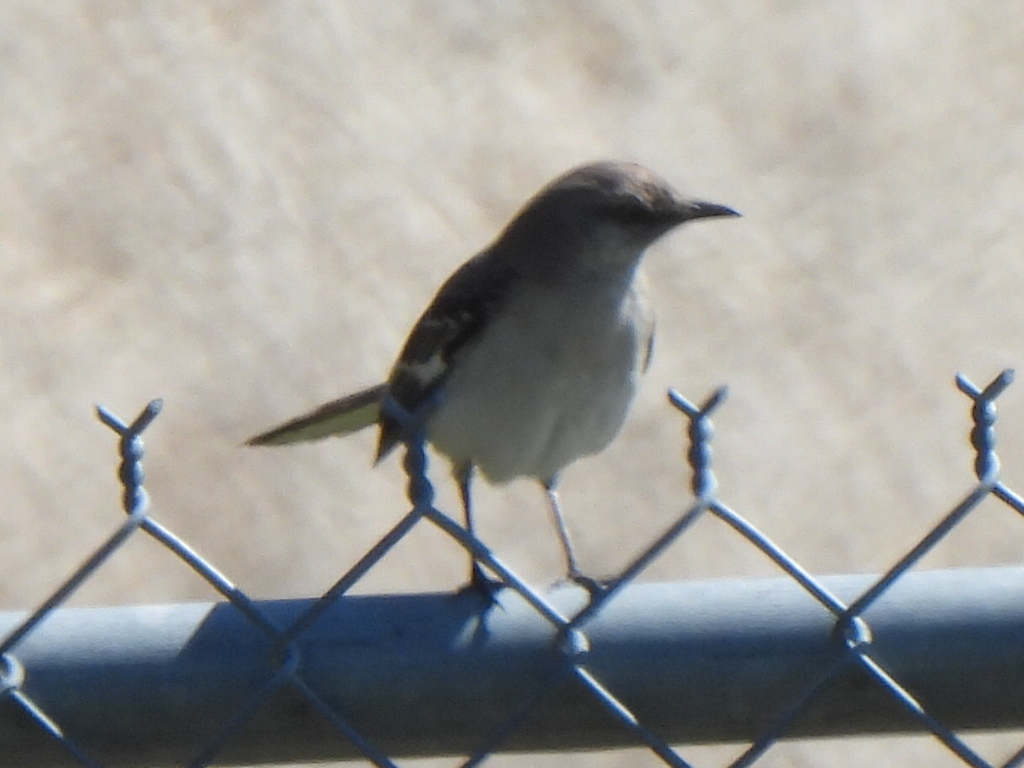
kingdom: Animalia
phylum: Chordata
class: Aves
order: Passeriformes
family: Mimidae
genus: Mimus
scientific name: Mimus polyglottos
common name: Northern mockingbird
